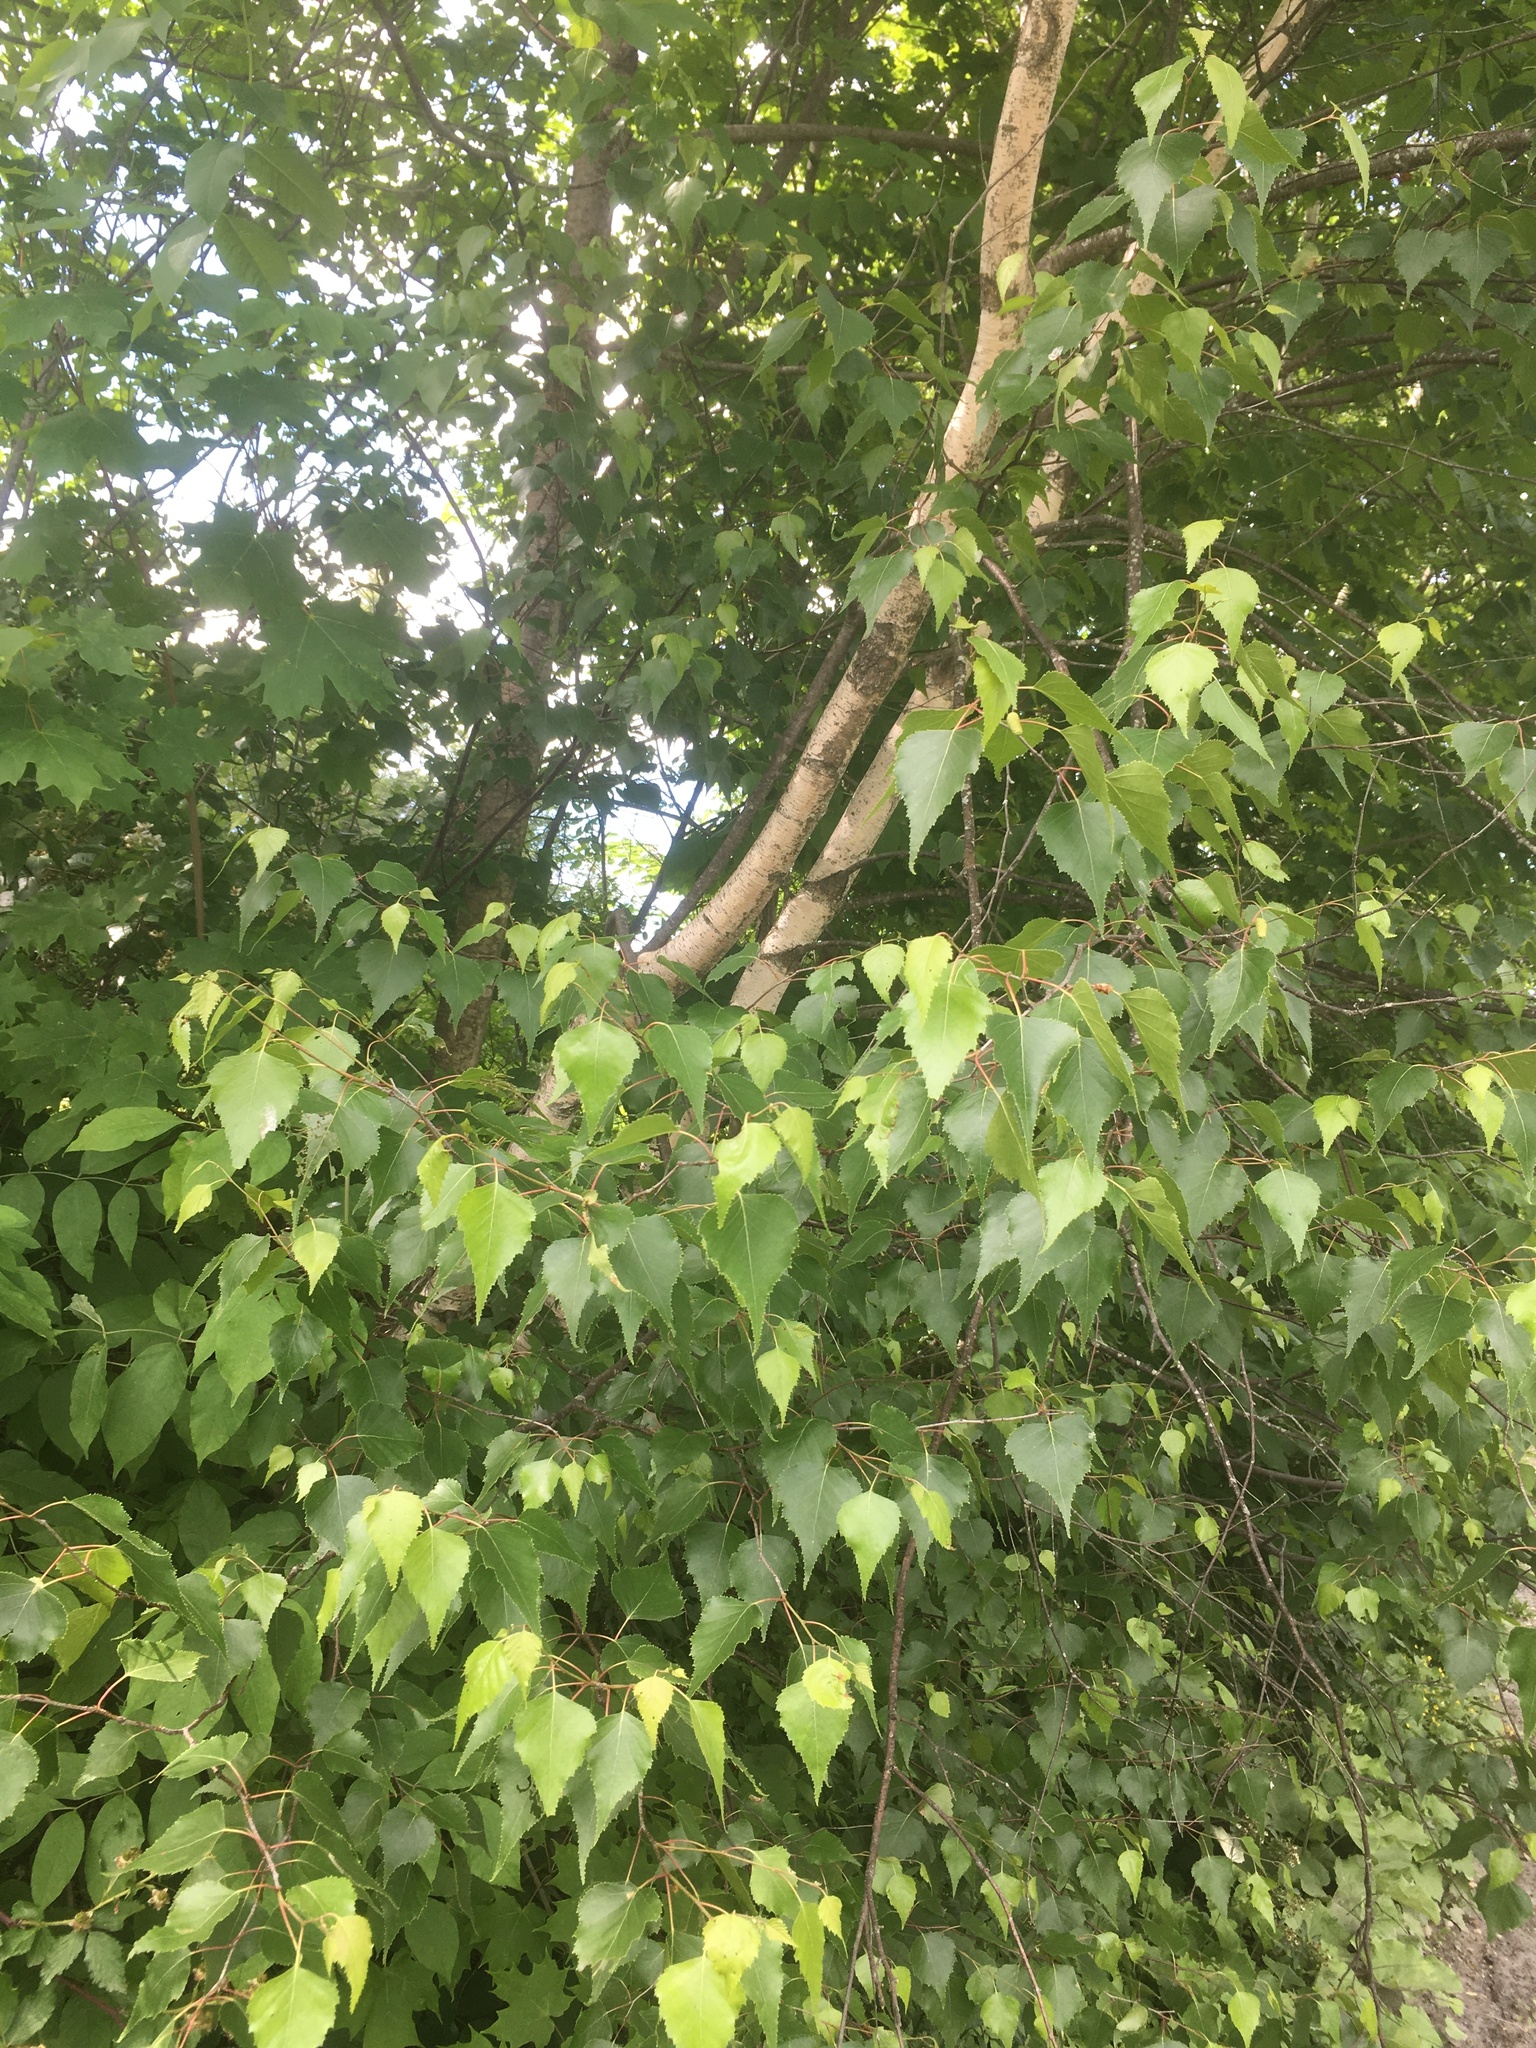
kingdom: Plantae
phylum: Tracheophyta
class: Magnoliopsida
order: Fagales
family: Betulaceae
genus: Betula
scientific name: Betula populifolia
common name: Fire birch
